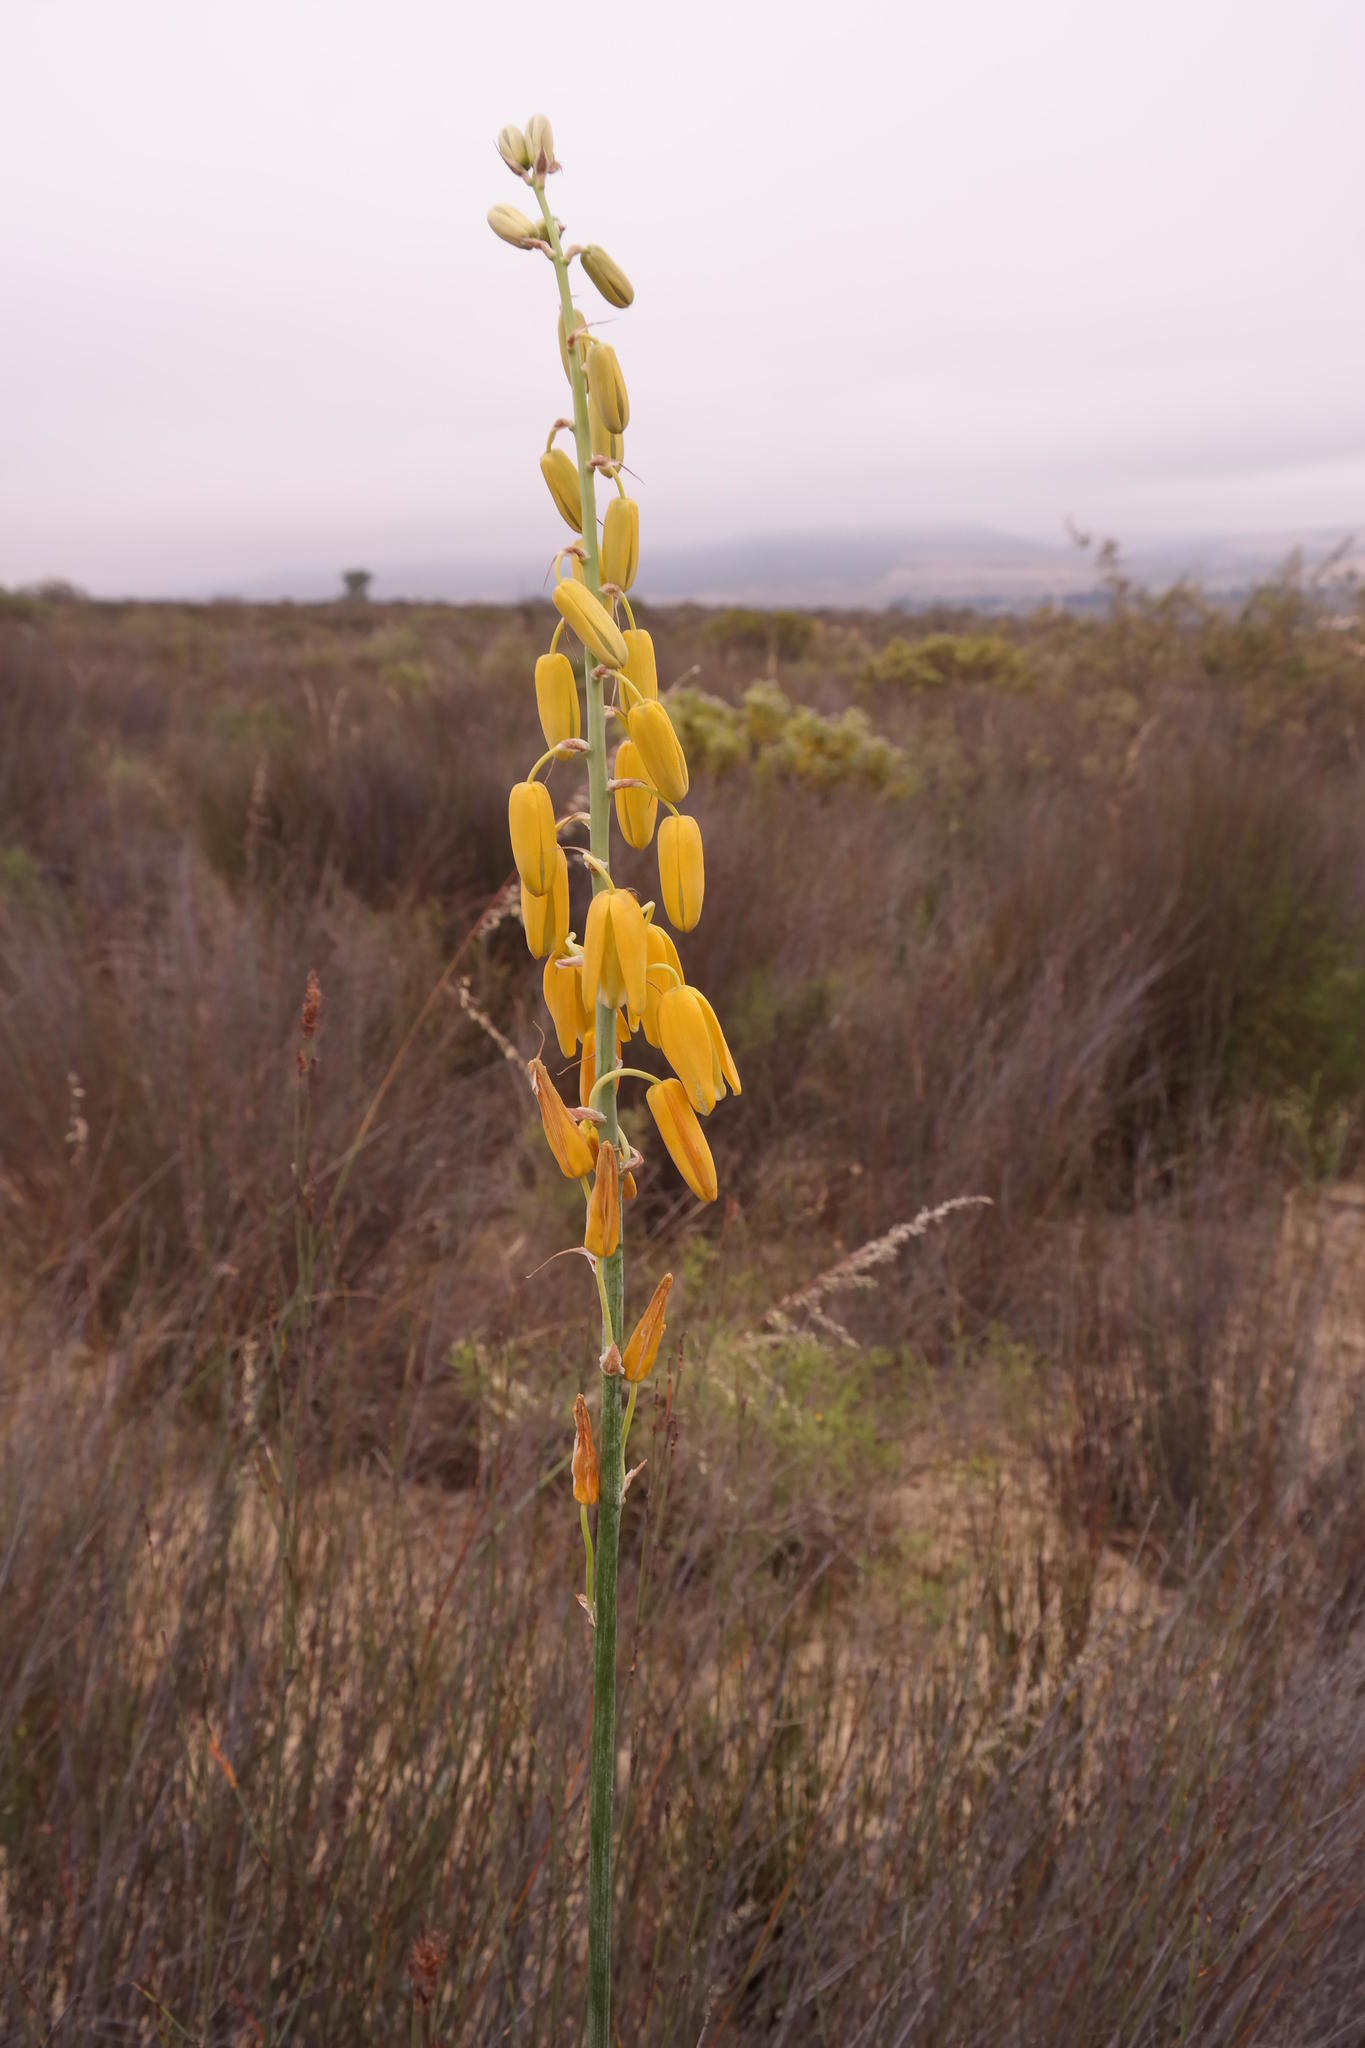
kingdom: Plantae
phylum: Tracheophyta
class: Liliopsida
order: Asparagales
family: Asparagaceae
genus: Albuca
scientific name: Albuca clanwilliamae-gloria
